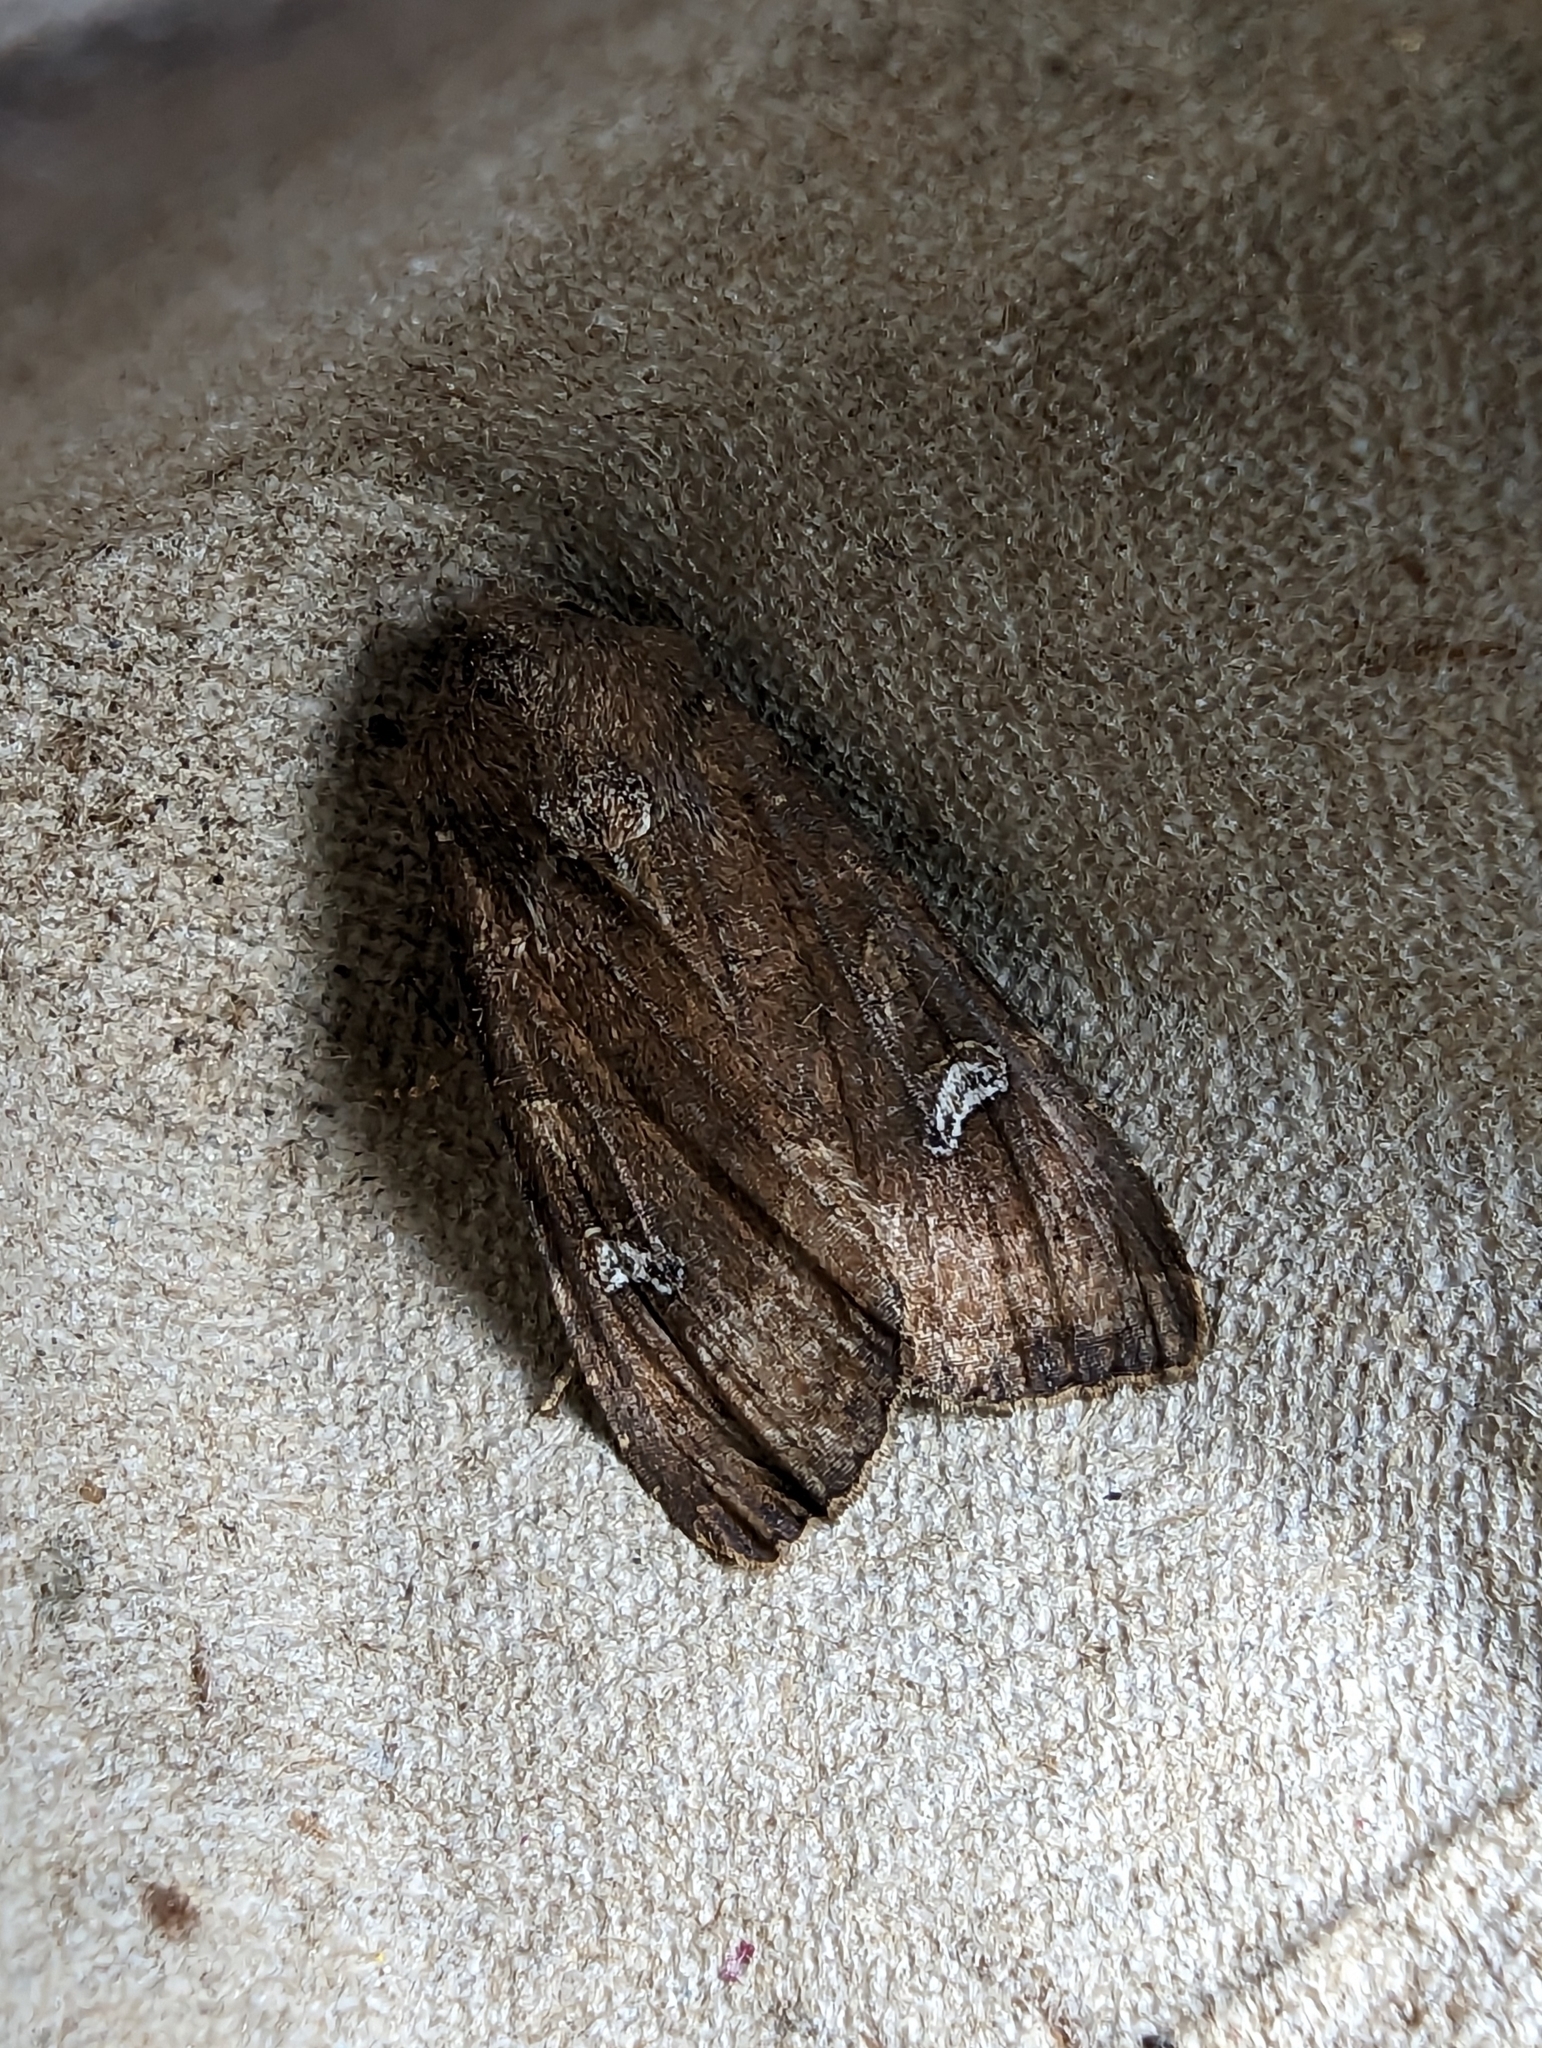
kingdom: Animalia
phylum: Arthropoda
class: Insecta
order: Lepidoptera
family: Noctuidae
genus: Helotropha
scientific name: Helotropha leucostigma
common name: The crescent
